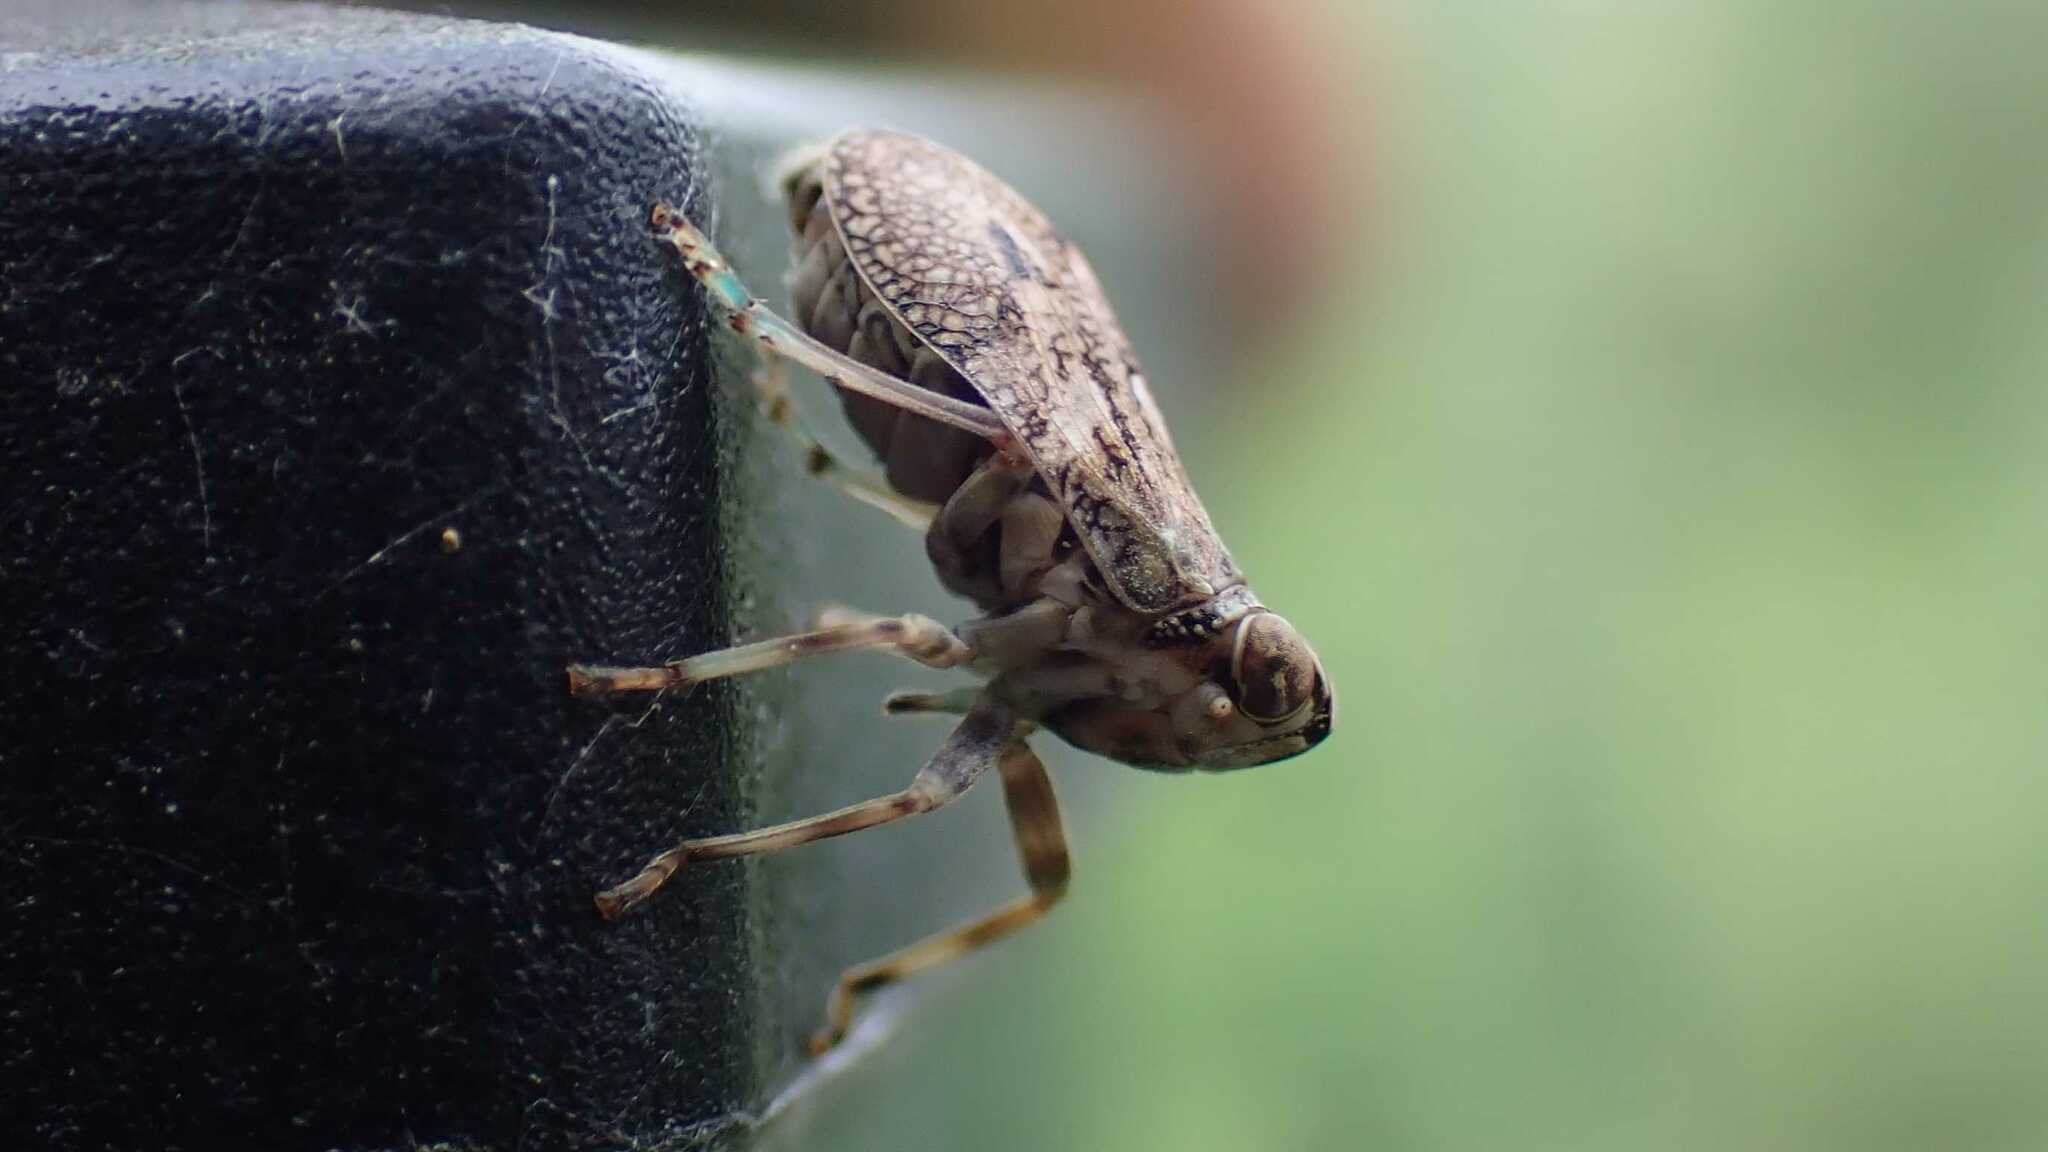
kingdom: Animalia
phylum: Arthropoda
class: Insecta
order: Hemiptera
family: Issidae
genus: Issus
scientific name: Issus coleoptratus
